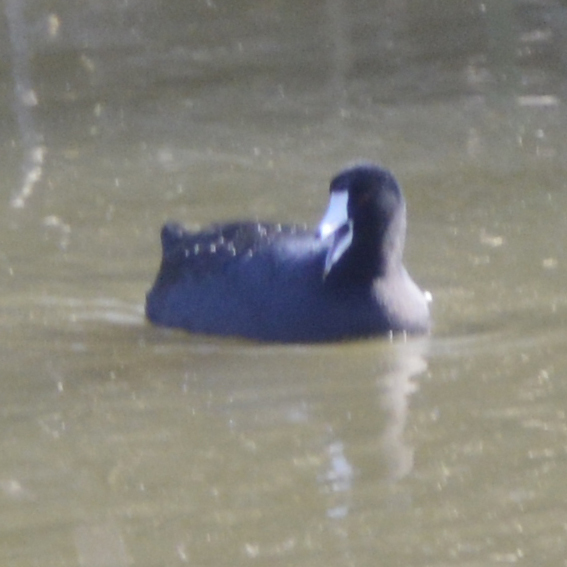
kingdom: Animalia
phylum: Chordata
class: Aves
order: Gruiformes
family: Rallidae
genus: Fulica
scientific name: Fulica americana
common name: American coot
